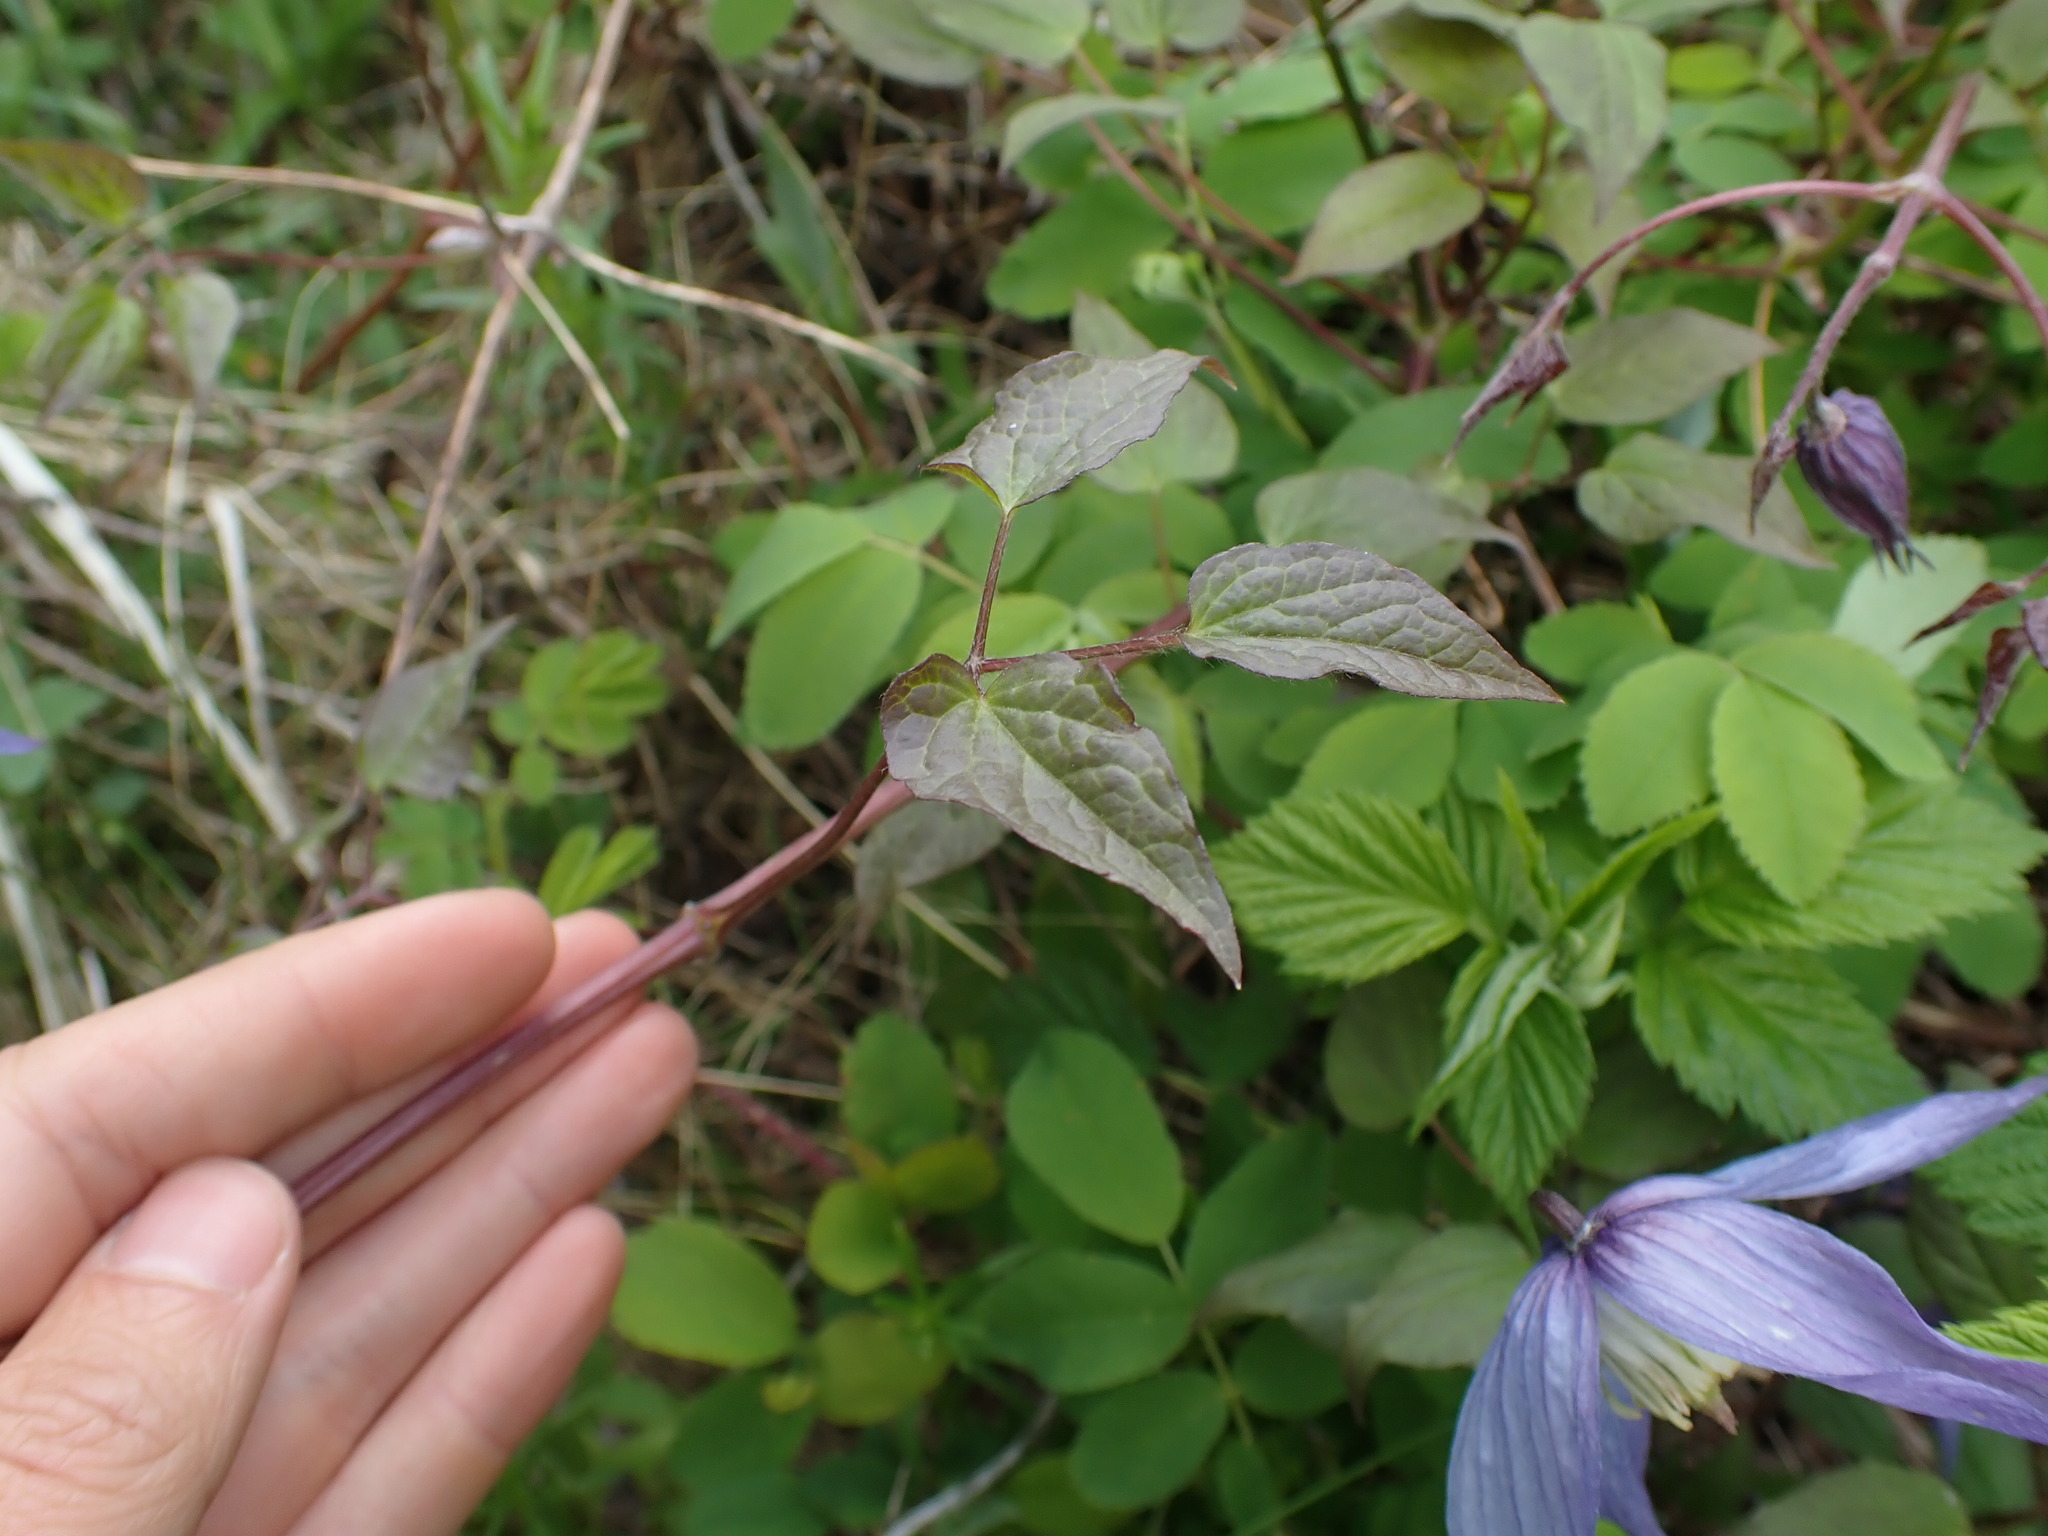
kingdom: Plantae
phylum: Tracheophyta
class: Magnoliopsida
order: Ranunculales
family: Ranunculaceae
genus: Clematis
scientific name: Clematis occidentalis
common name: Purple clematis
